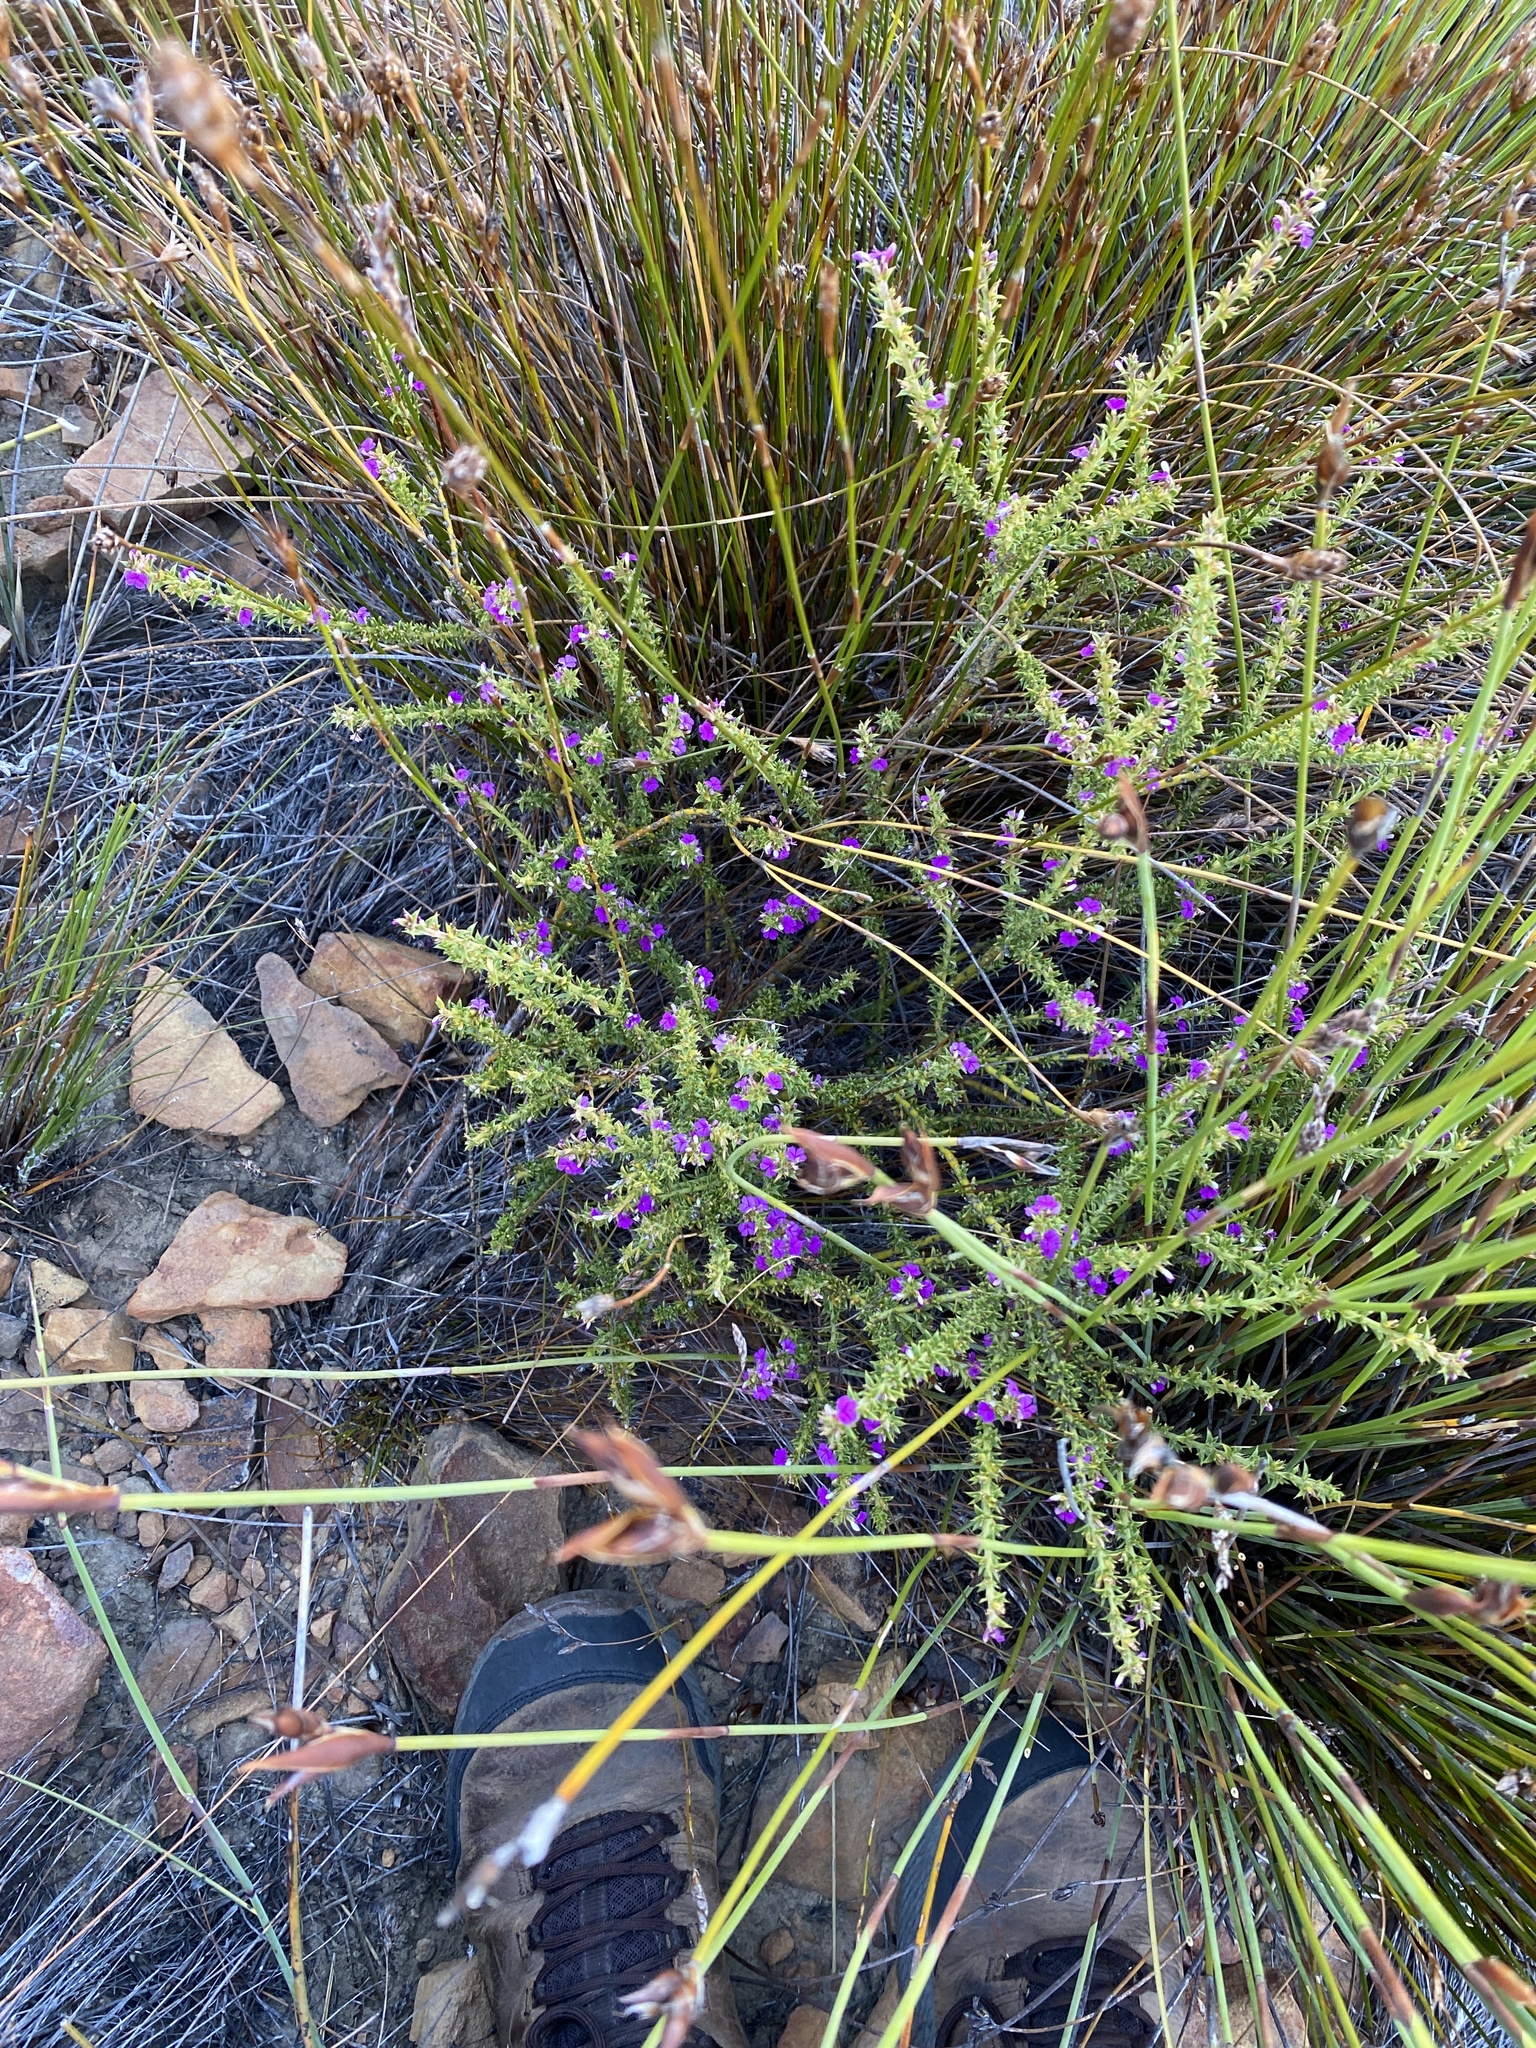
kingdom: Plantae
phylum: Tracheophyta
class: Magnoliopsida
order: Fabales
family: Polygalaceae
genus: Muraltia
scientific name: Muraltia heisteria
